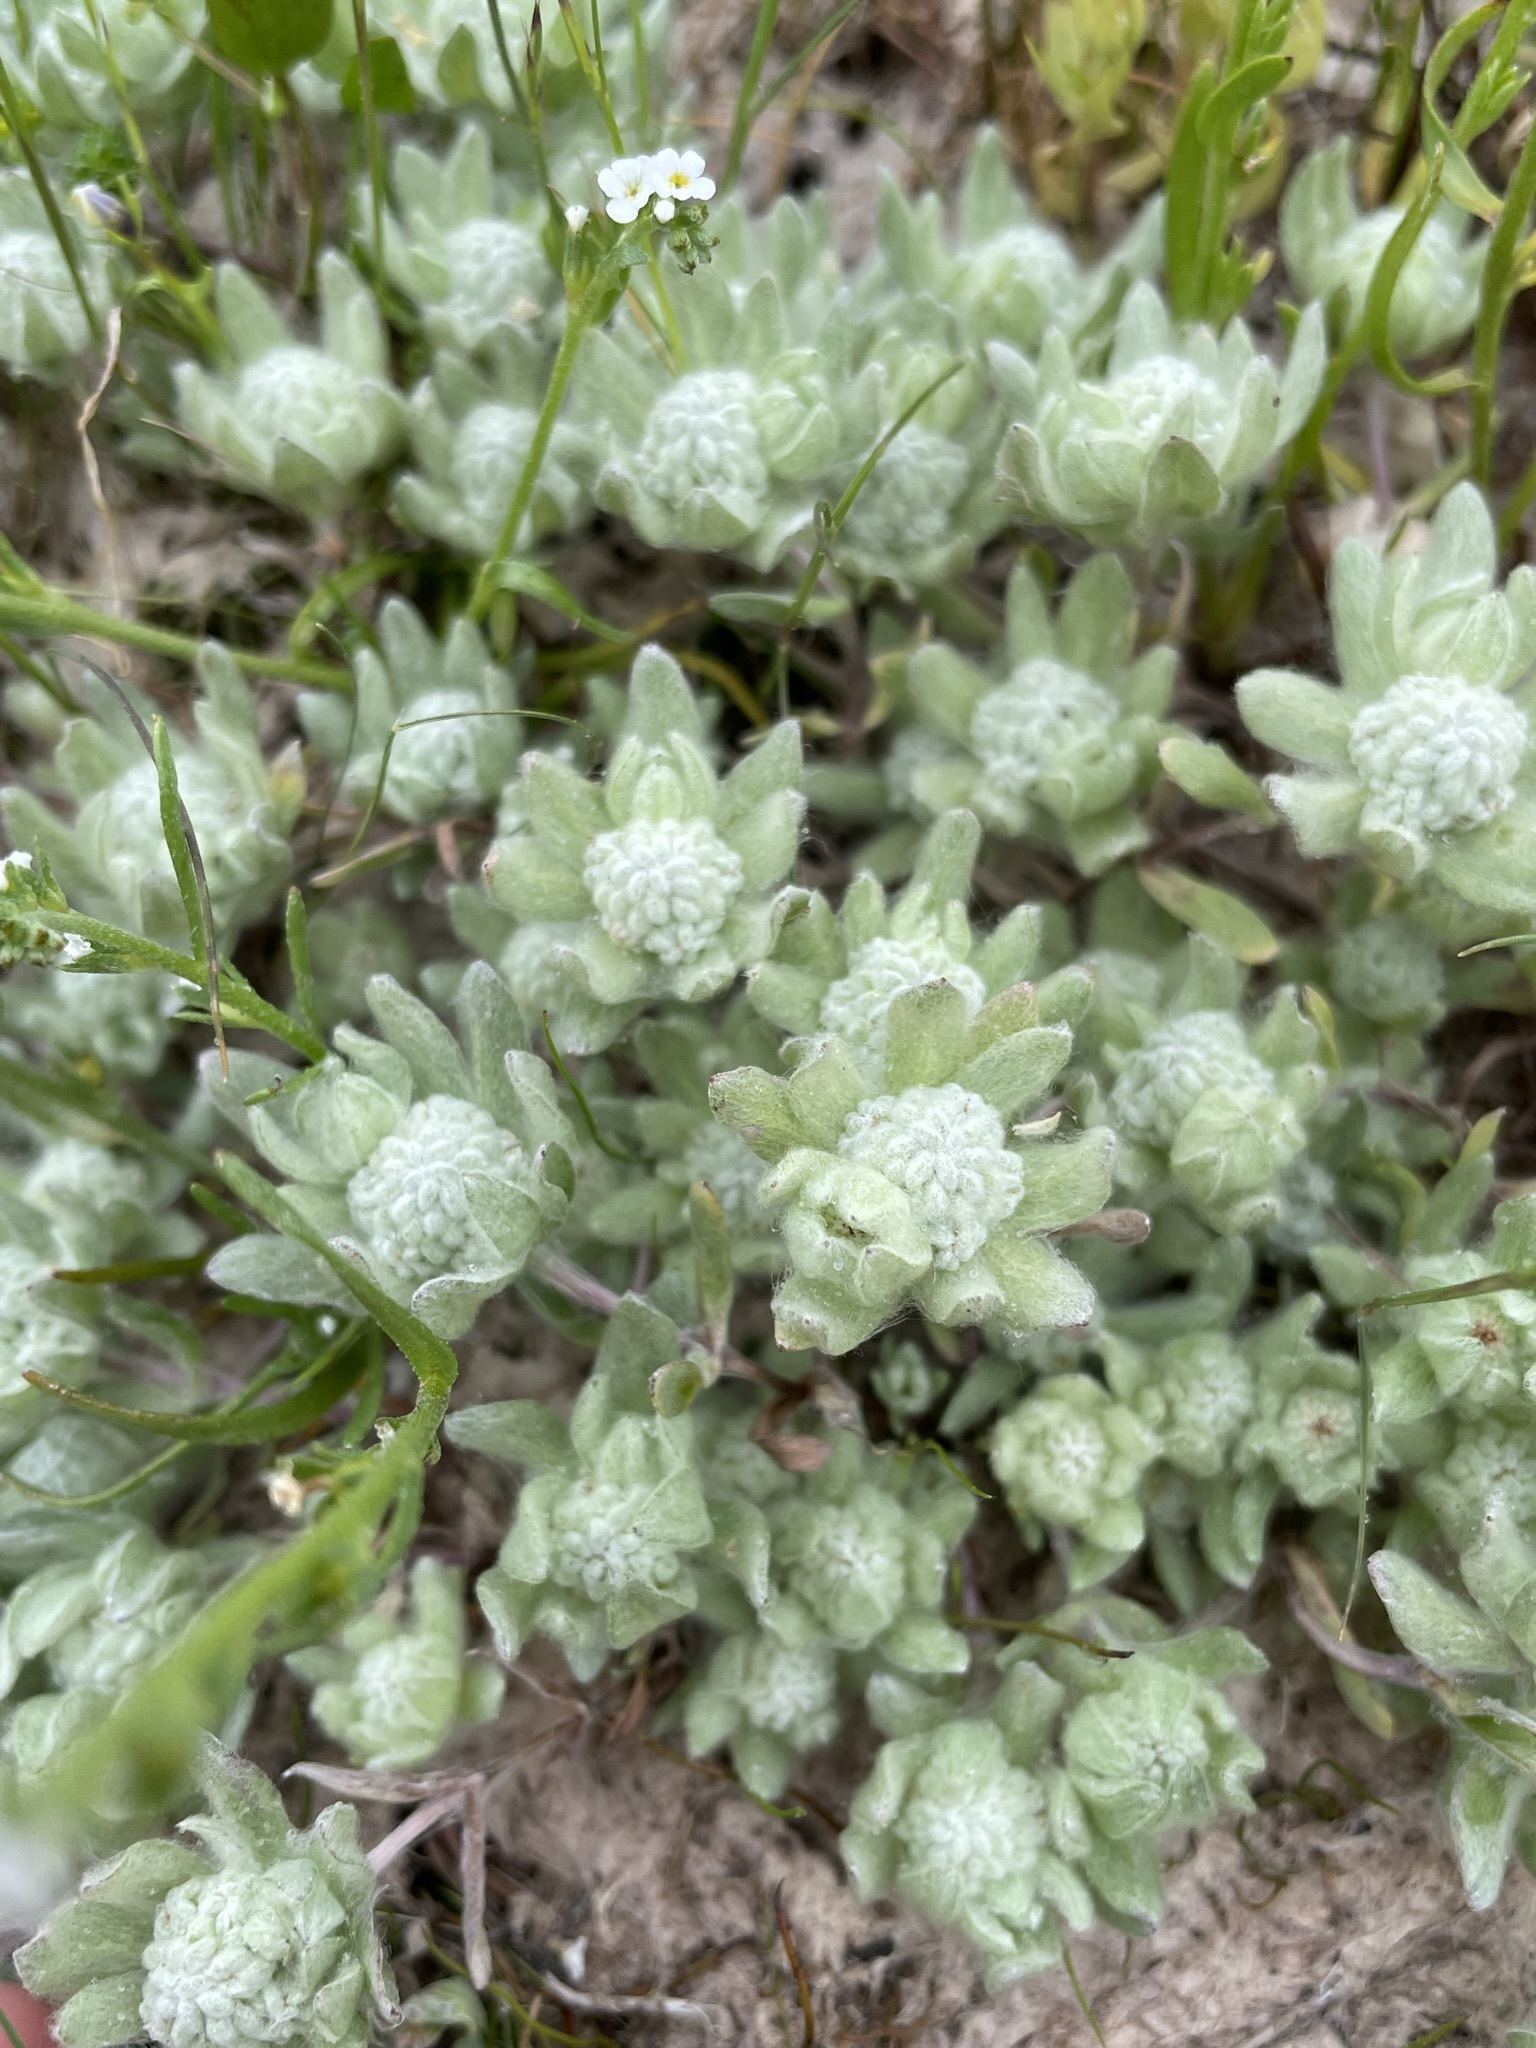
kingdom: Plantae
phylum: Tracheophyta
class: Magnoliopsida
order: Asterales
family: Asteraceae
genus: Psilocarphus
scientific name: Psilocarphus brevissimus
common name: Dwarf woollyheads
